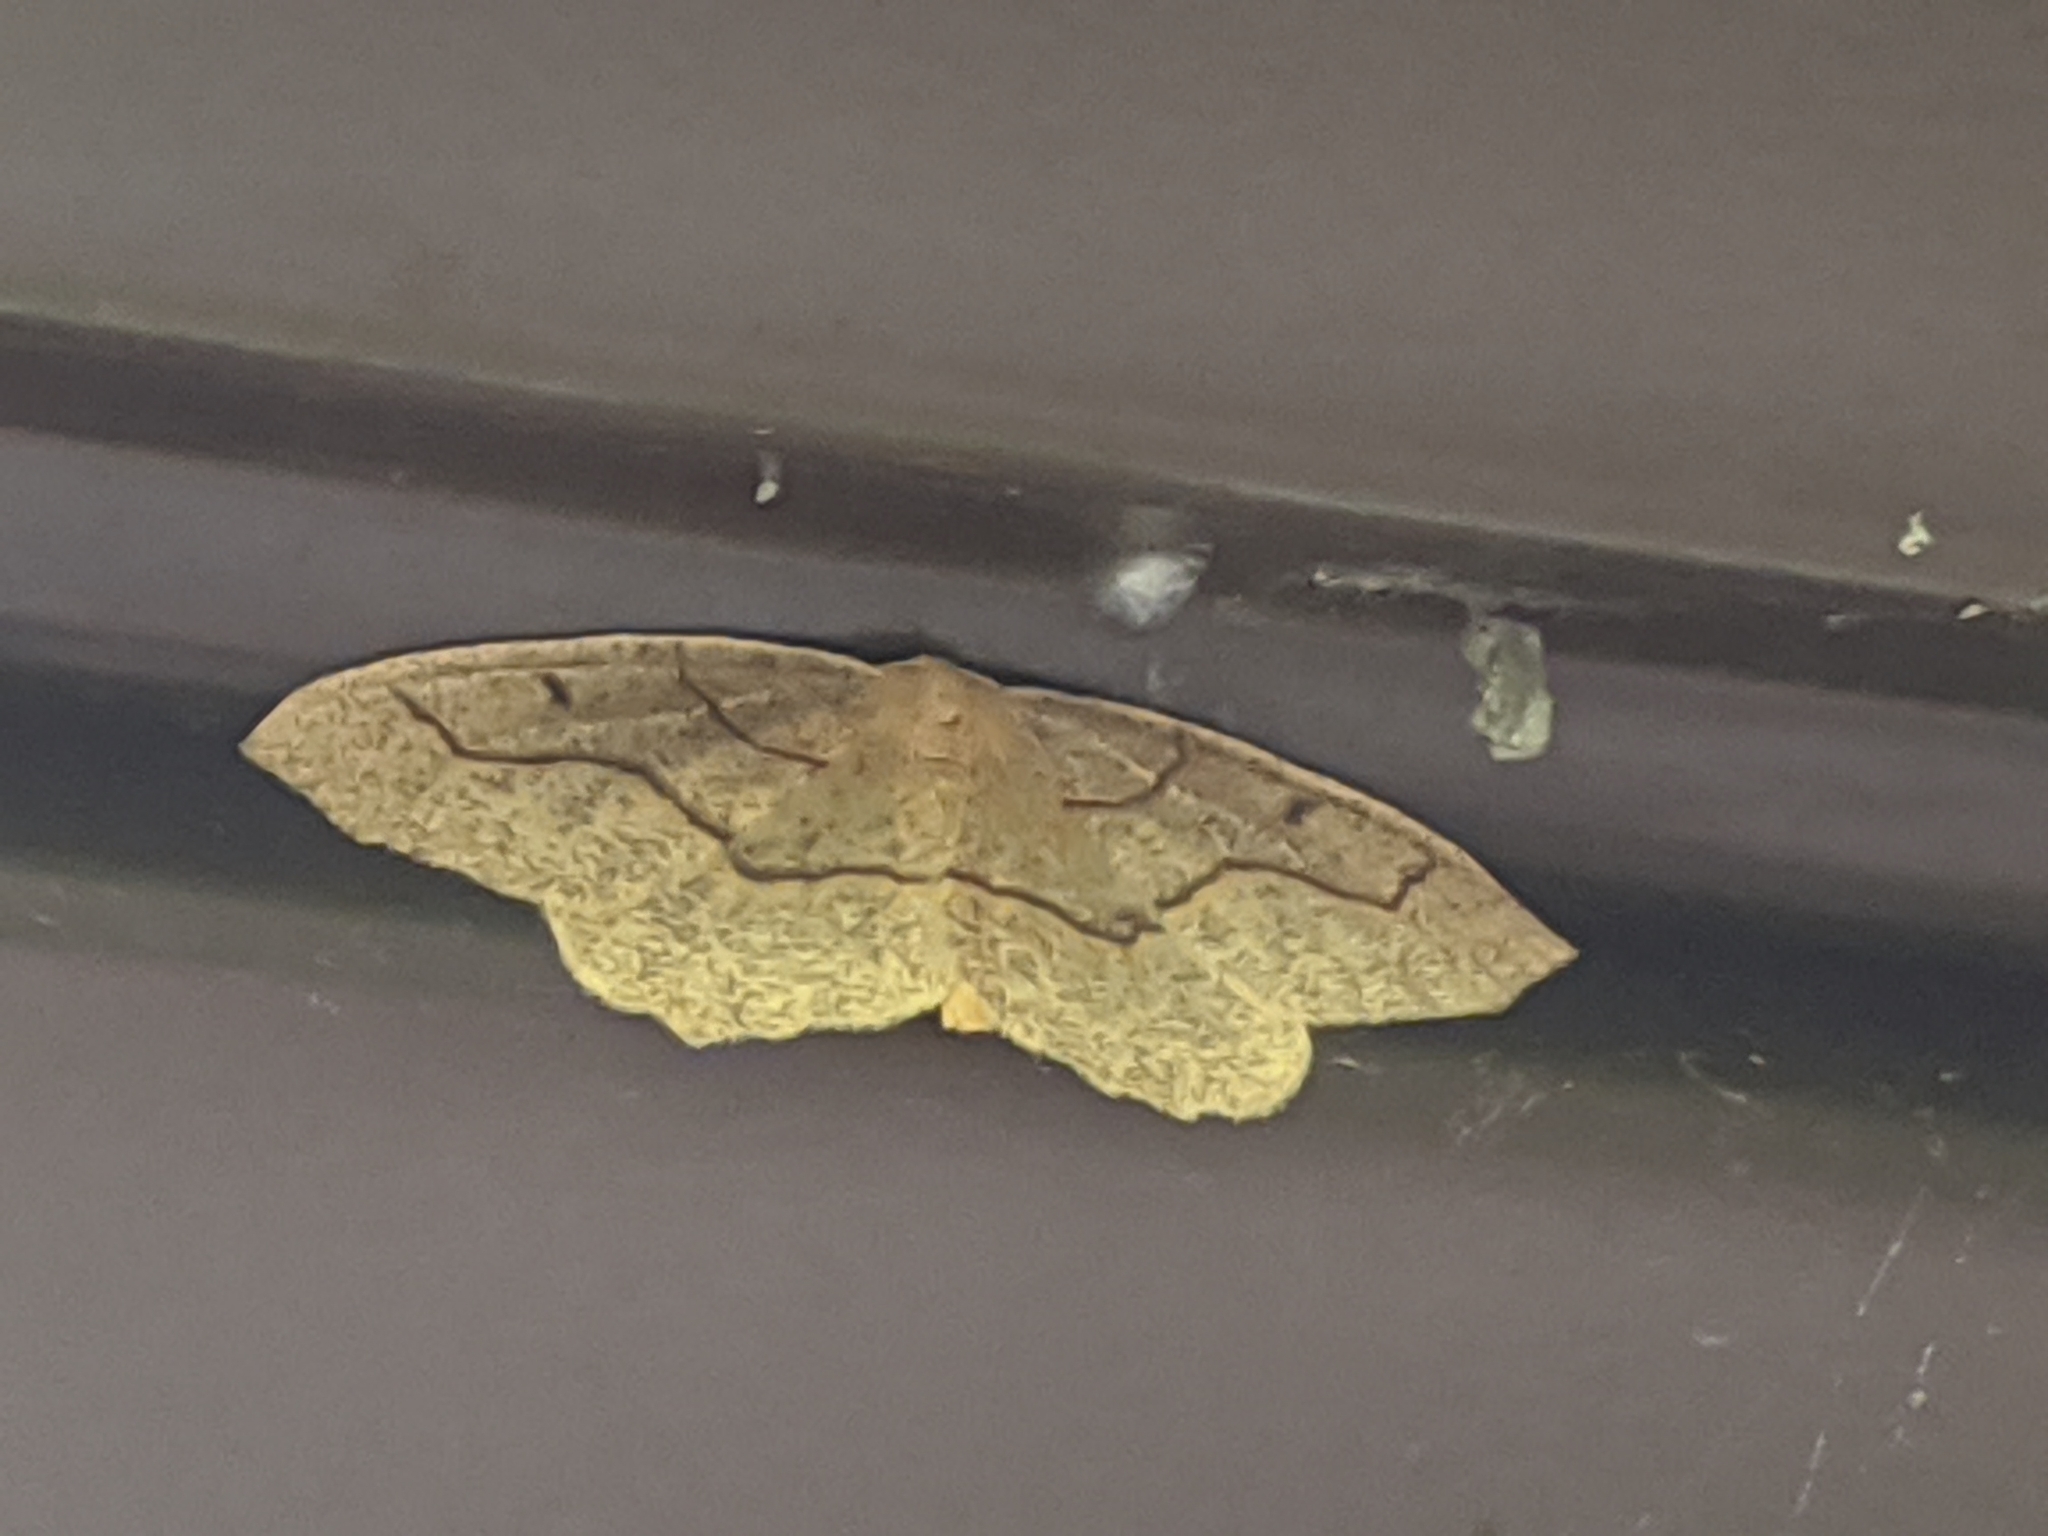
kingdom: Animalia
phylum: Arthropoda
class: Insecta
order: Lepidoptera
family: Geometridae
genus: Lambdina
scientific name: Lambdina fiscellaria
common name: Hemlock looper
